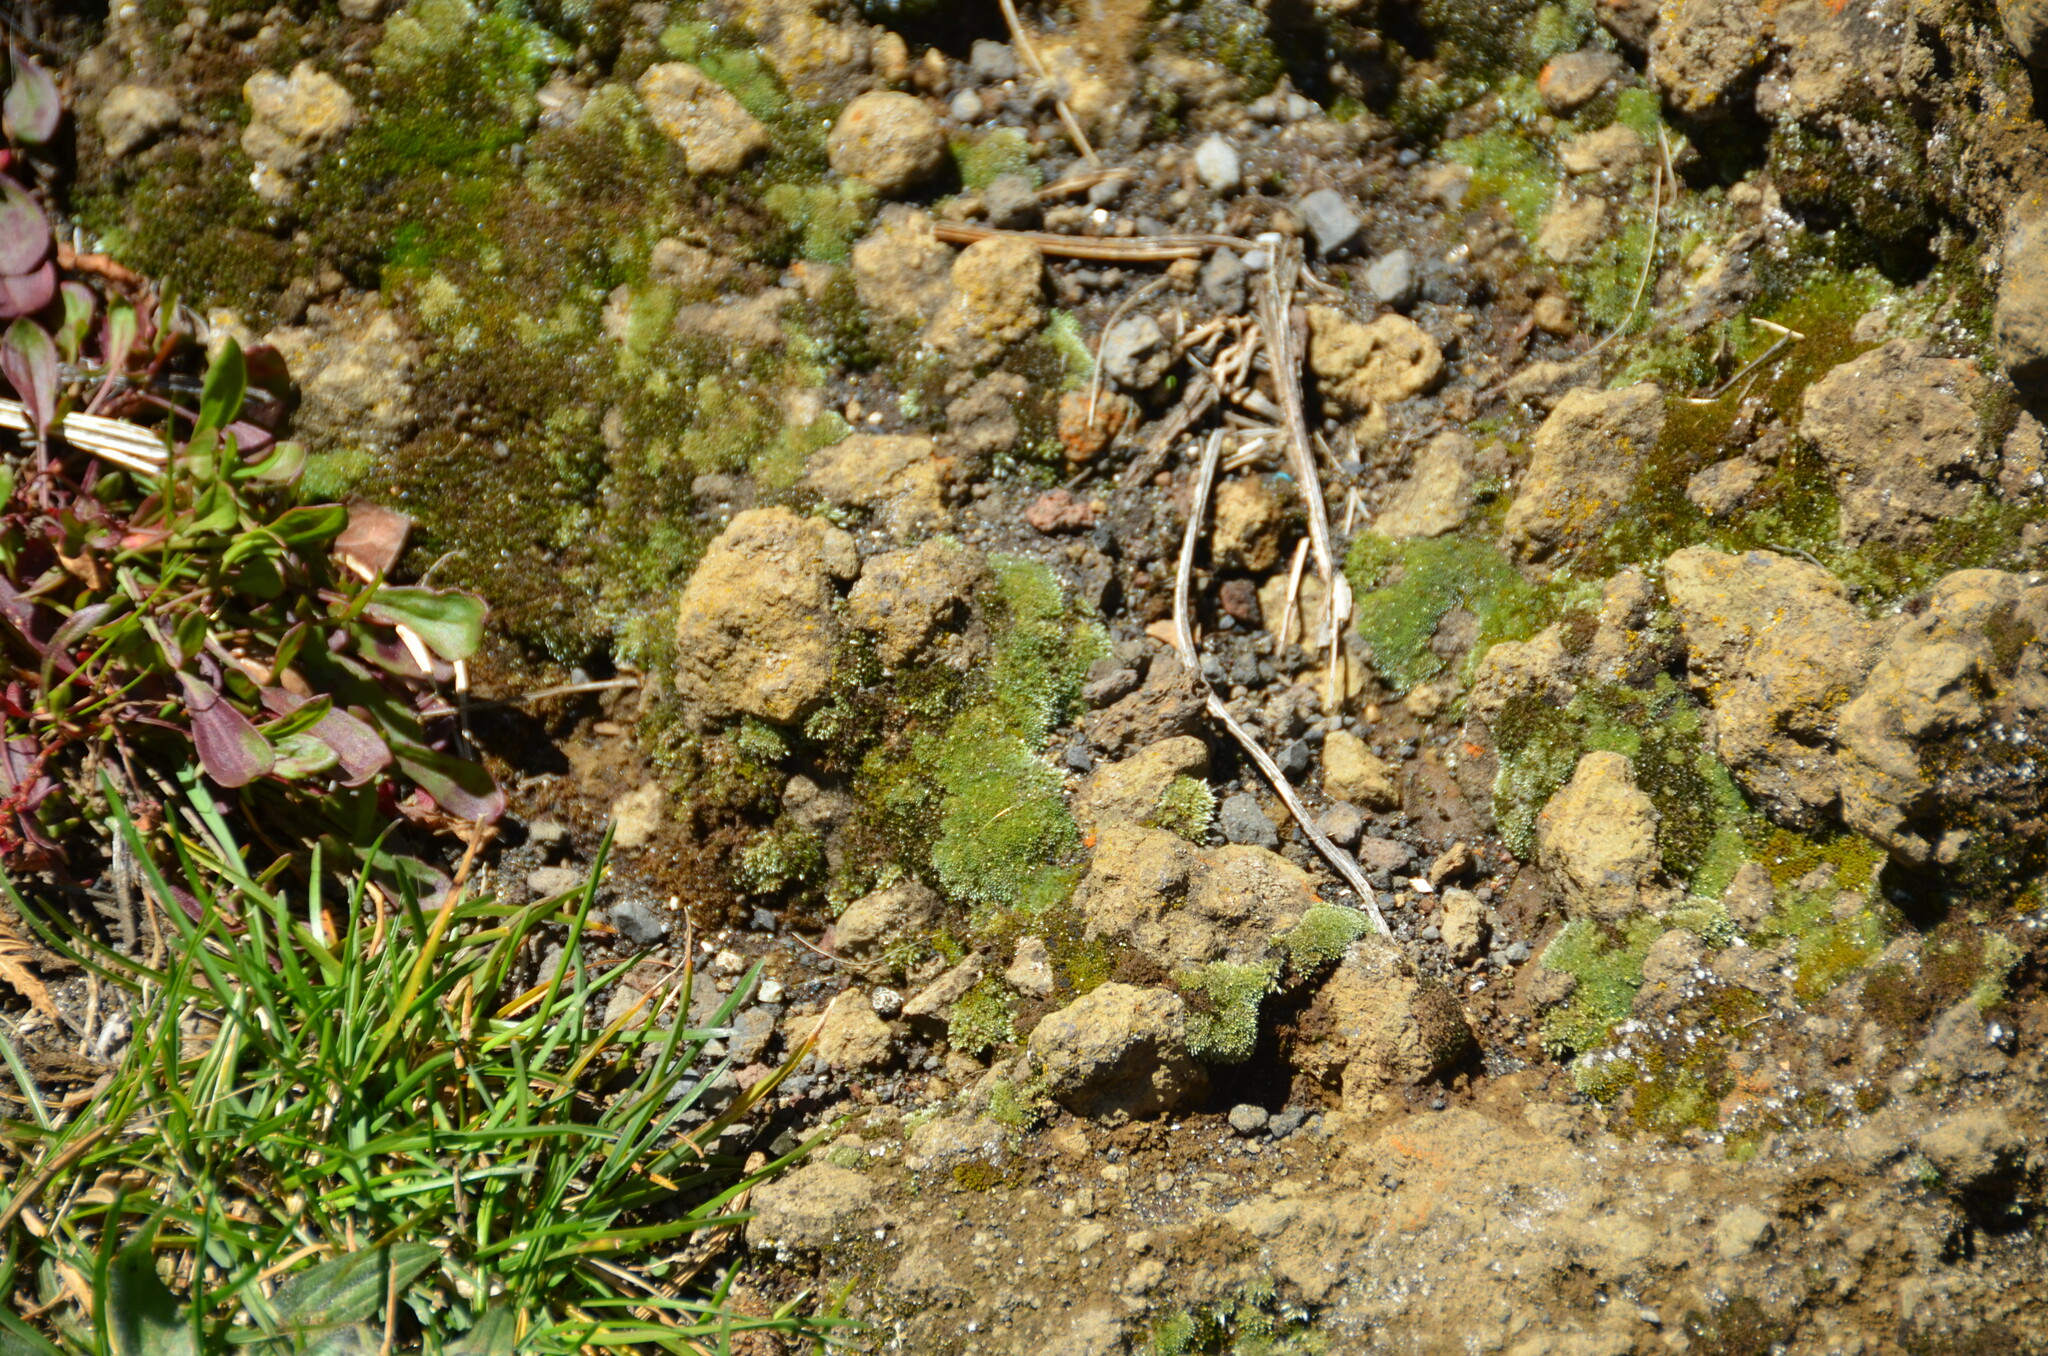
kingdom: Plantae
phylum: Bryophyta
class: Bryopsida
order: Bryales
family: Bryaceae
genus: Bryum
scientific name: Bryum argenteum
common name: Silver-moss
